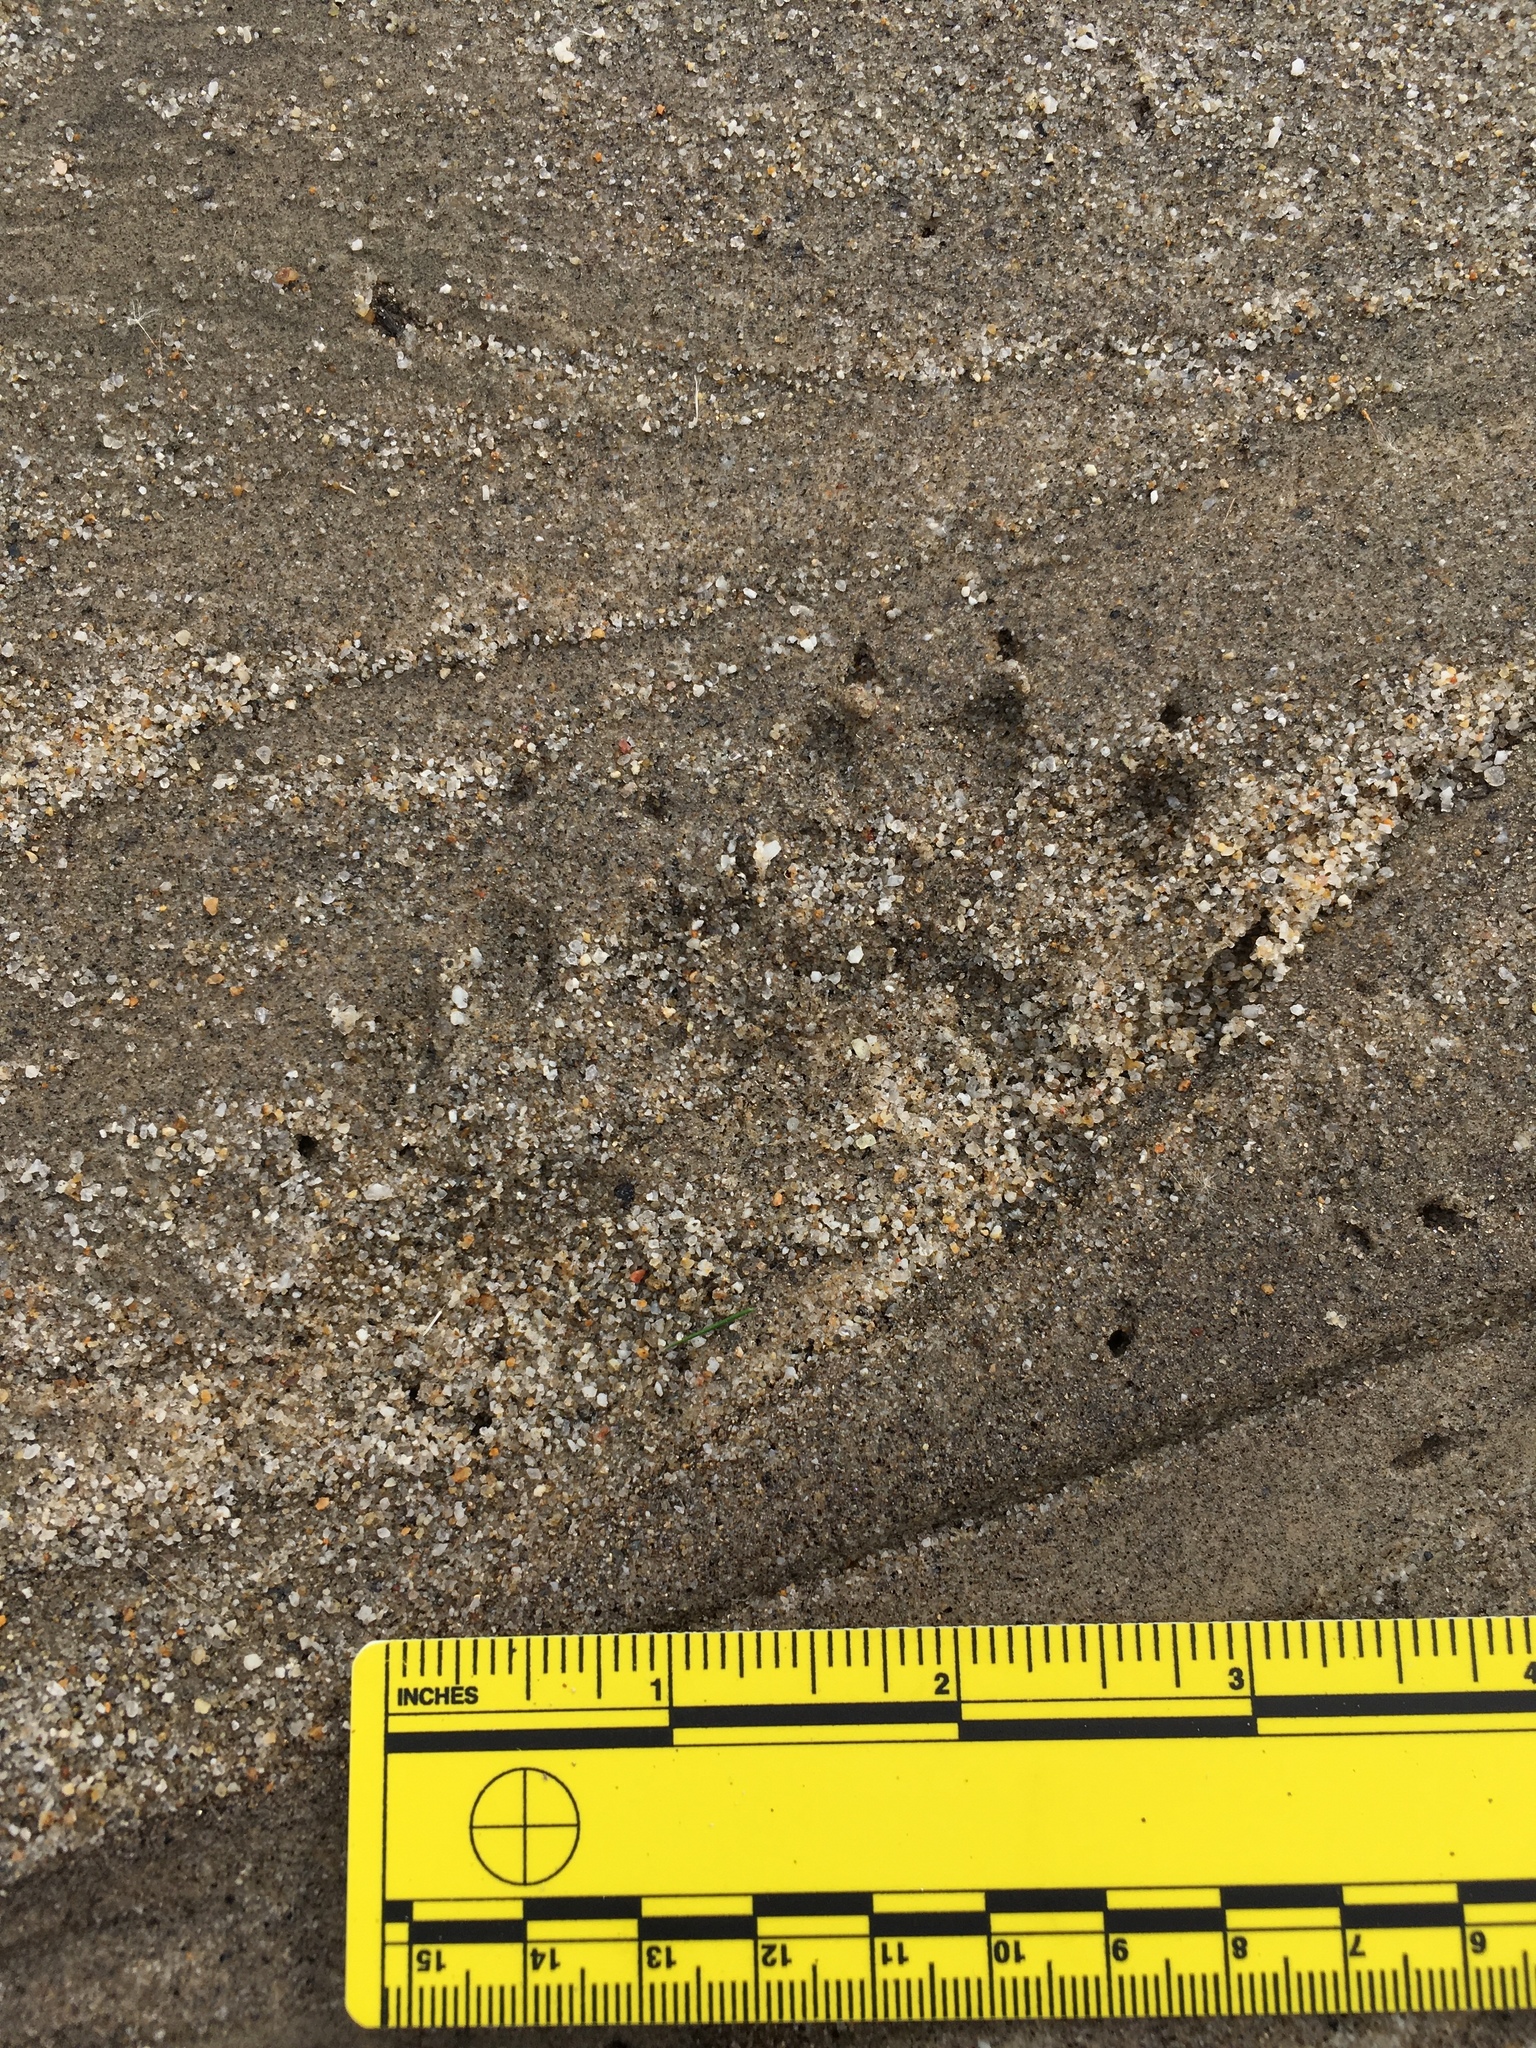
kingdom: Animalia
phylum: Chordata
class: Mammalia
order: Carnivora
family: Procyonidae
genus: Procyon
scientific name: Procyon lotor
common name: Raccoon
